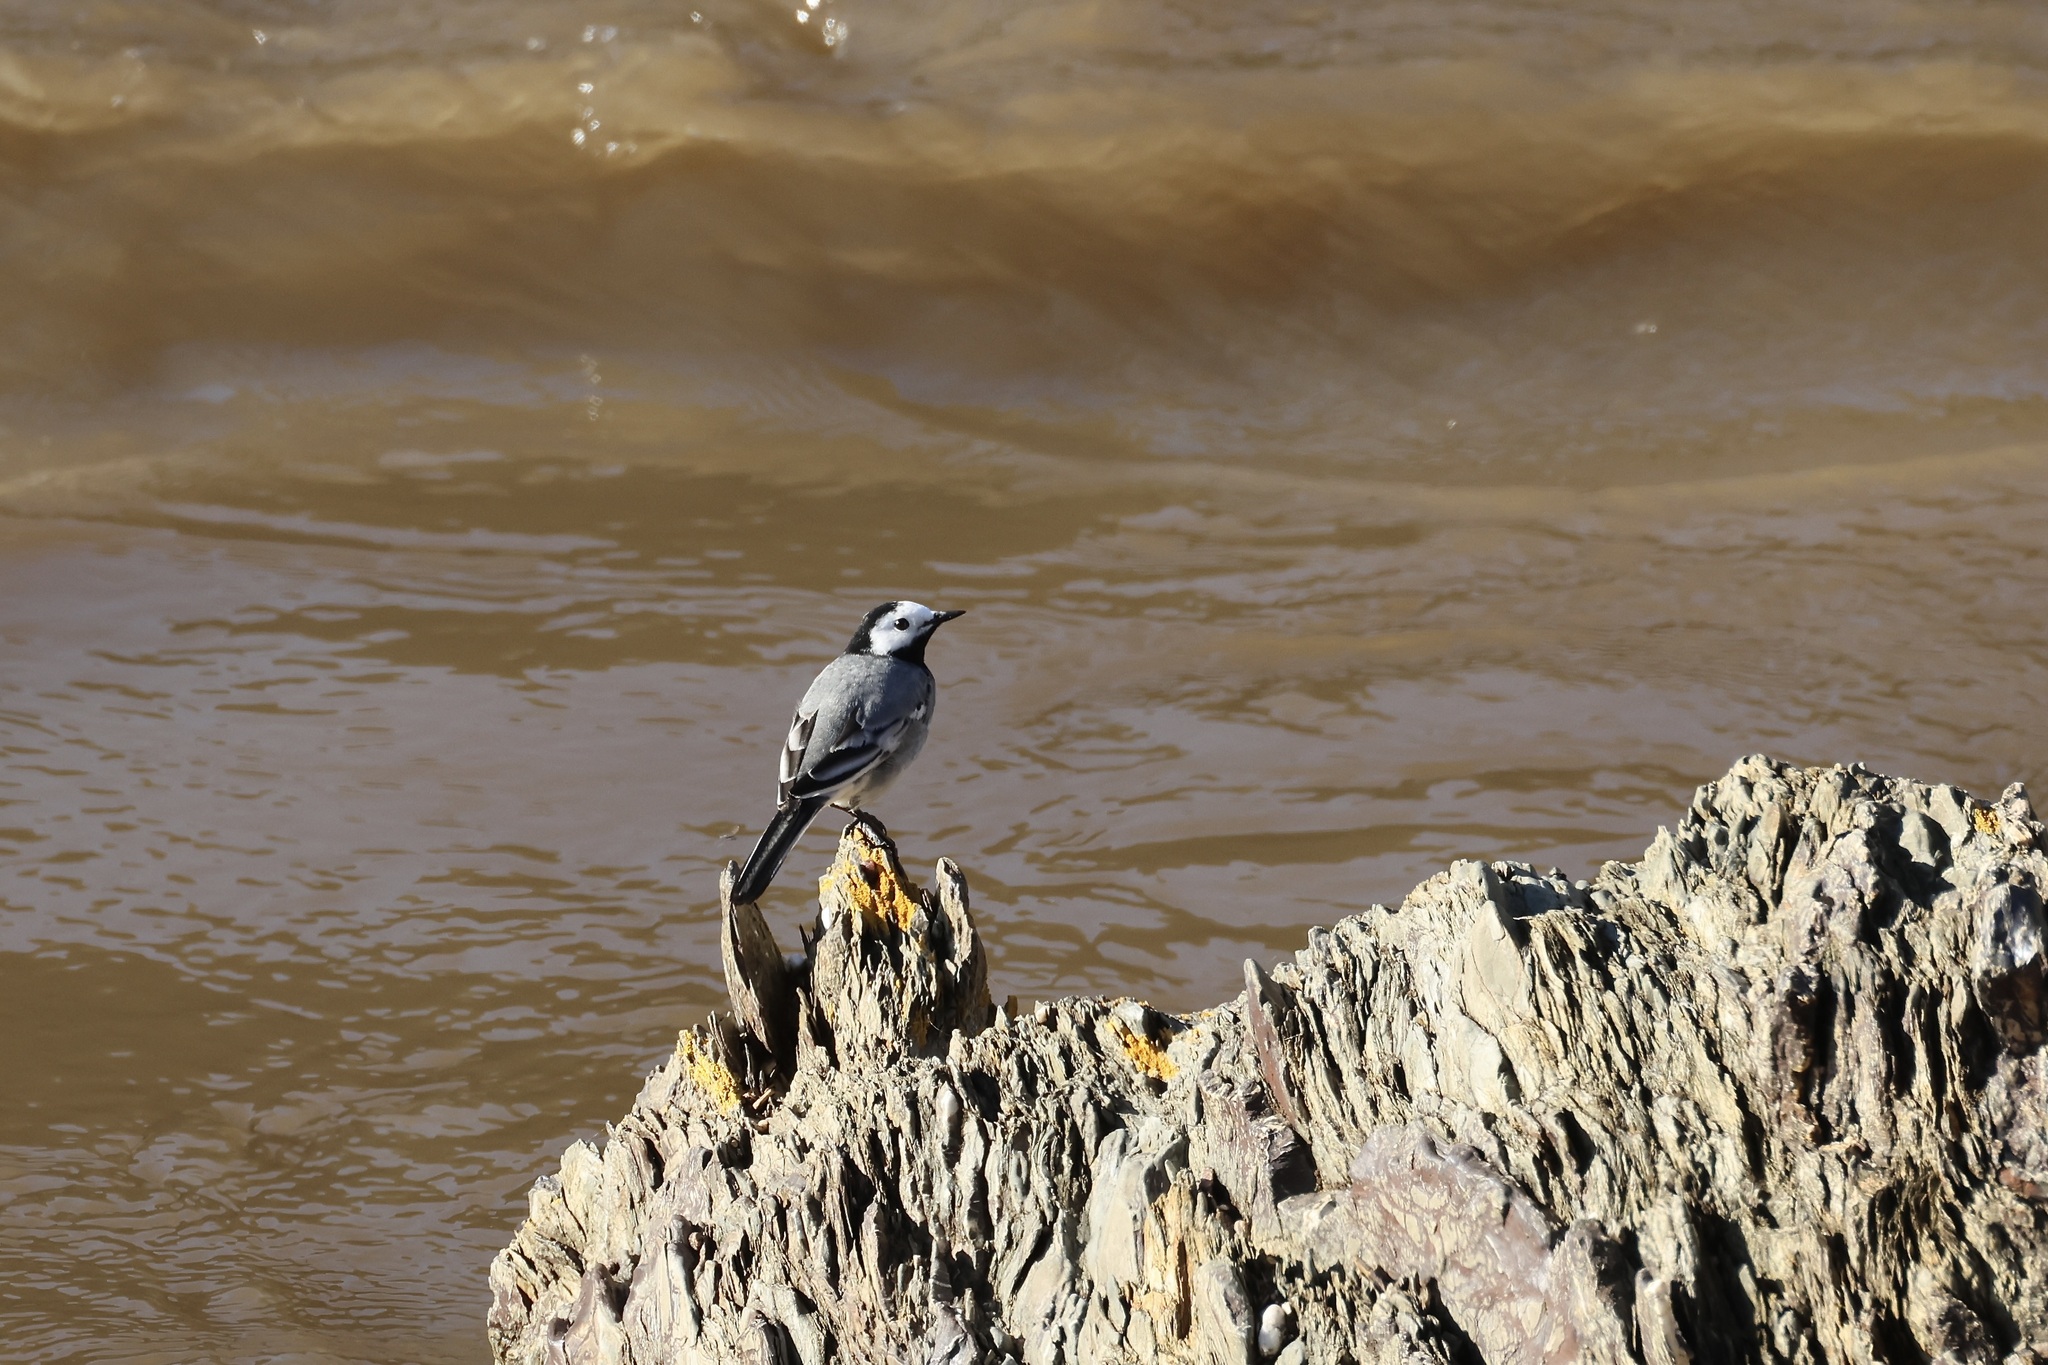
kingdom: Animalia
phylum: Chordata
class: Aves
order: Passeriformes
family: Motacillidae
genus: Motacilla
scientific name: Motacilla alba
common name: White wagtail
